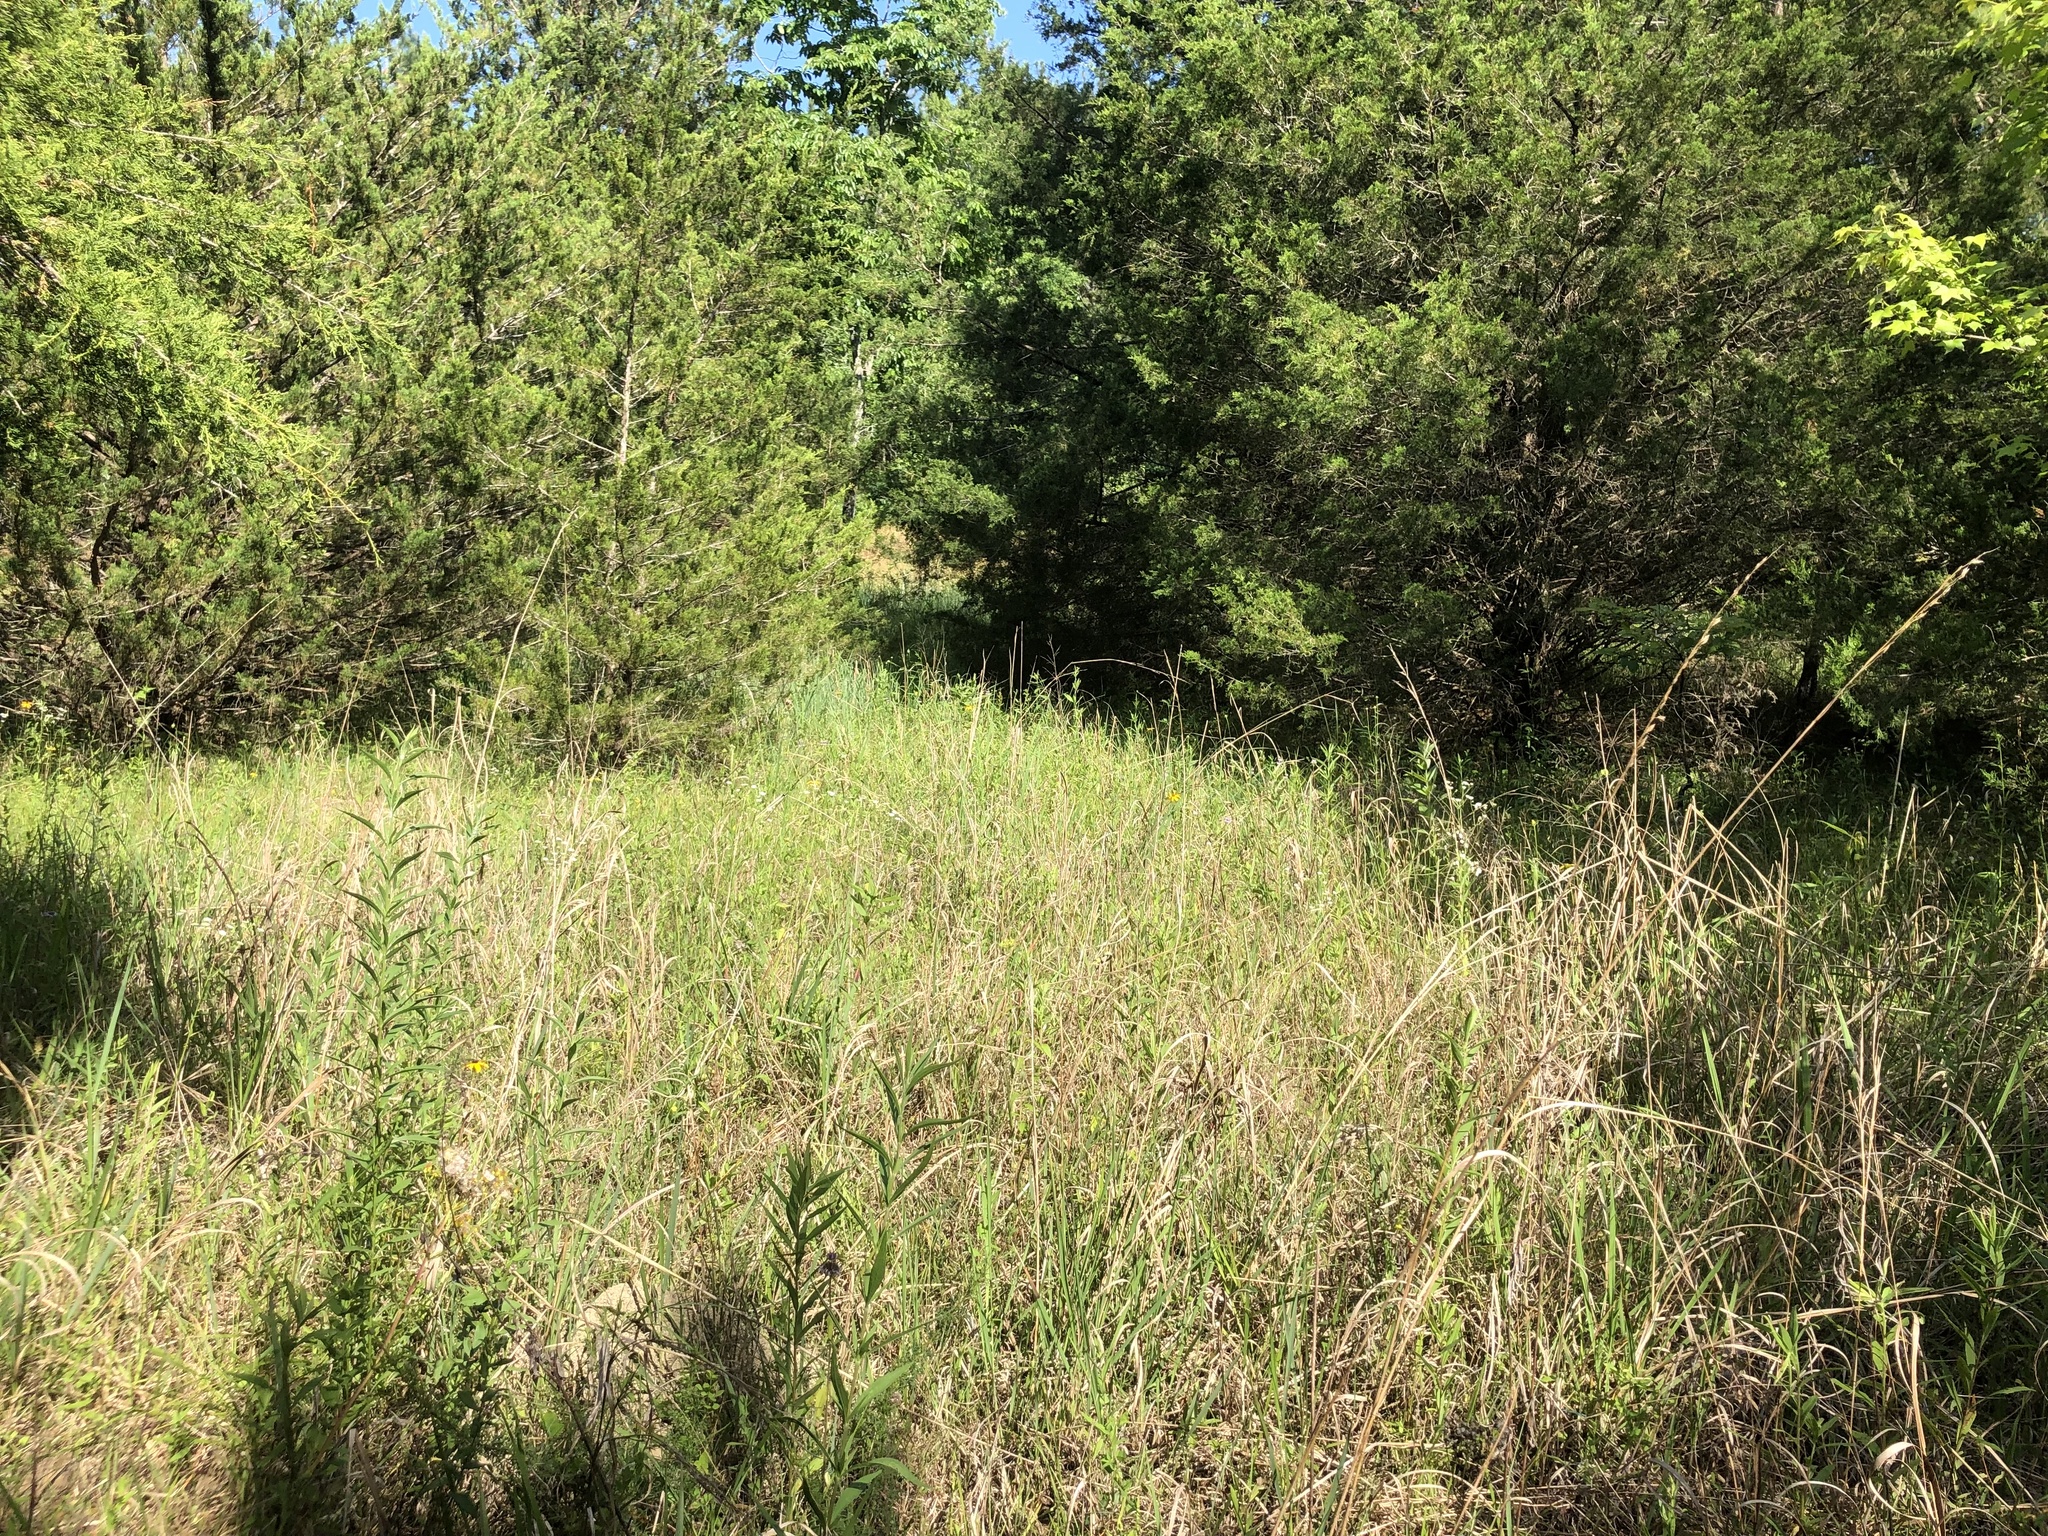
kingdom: Plantae
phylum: Tracheophyta
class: Pinopsida
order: Pinales
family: Cupressaceae
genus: Juniperus
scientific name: Juniperus virginiana
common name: Red juniper
